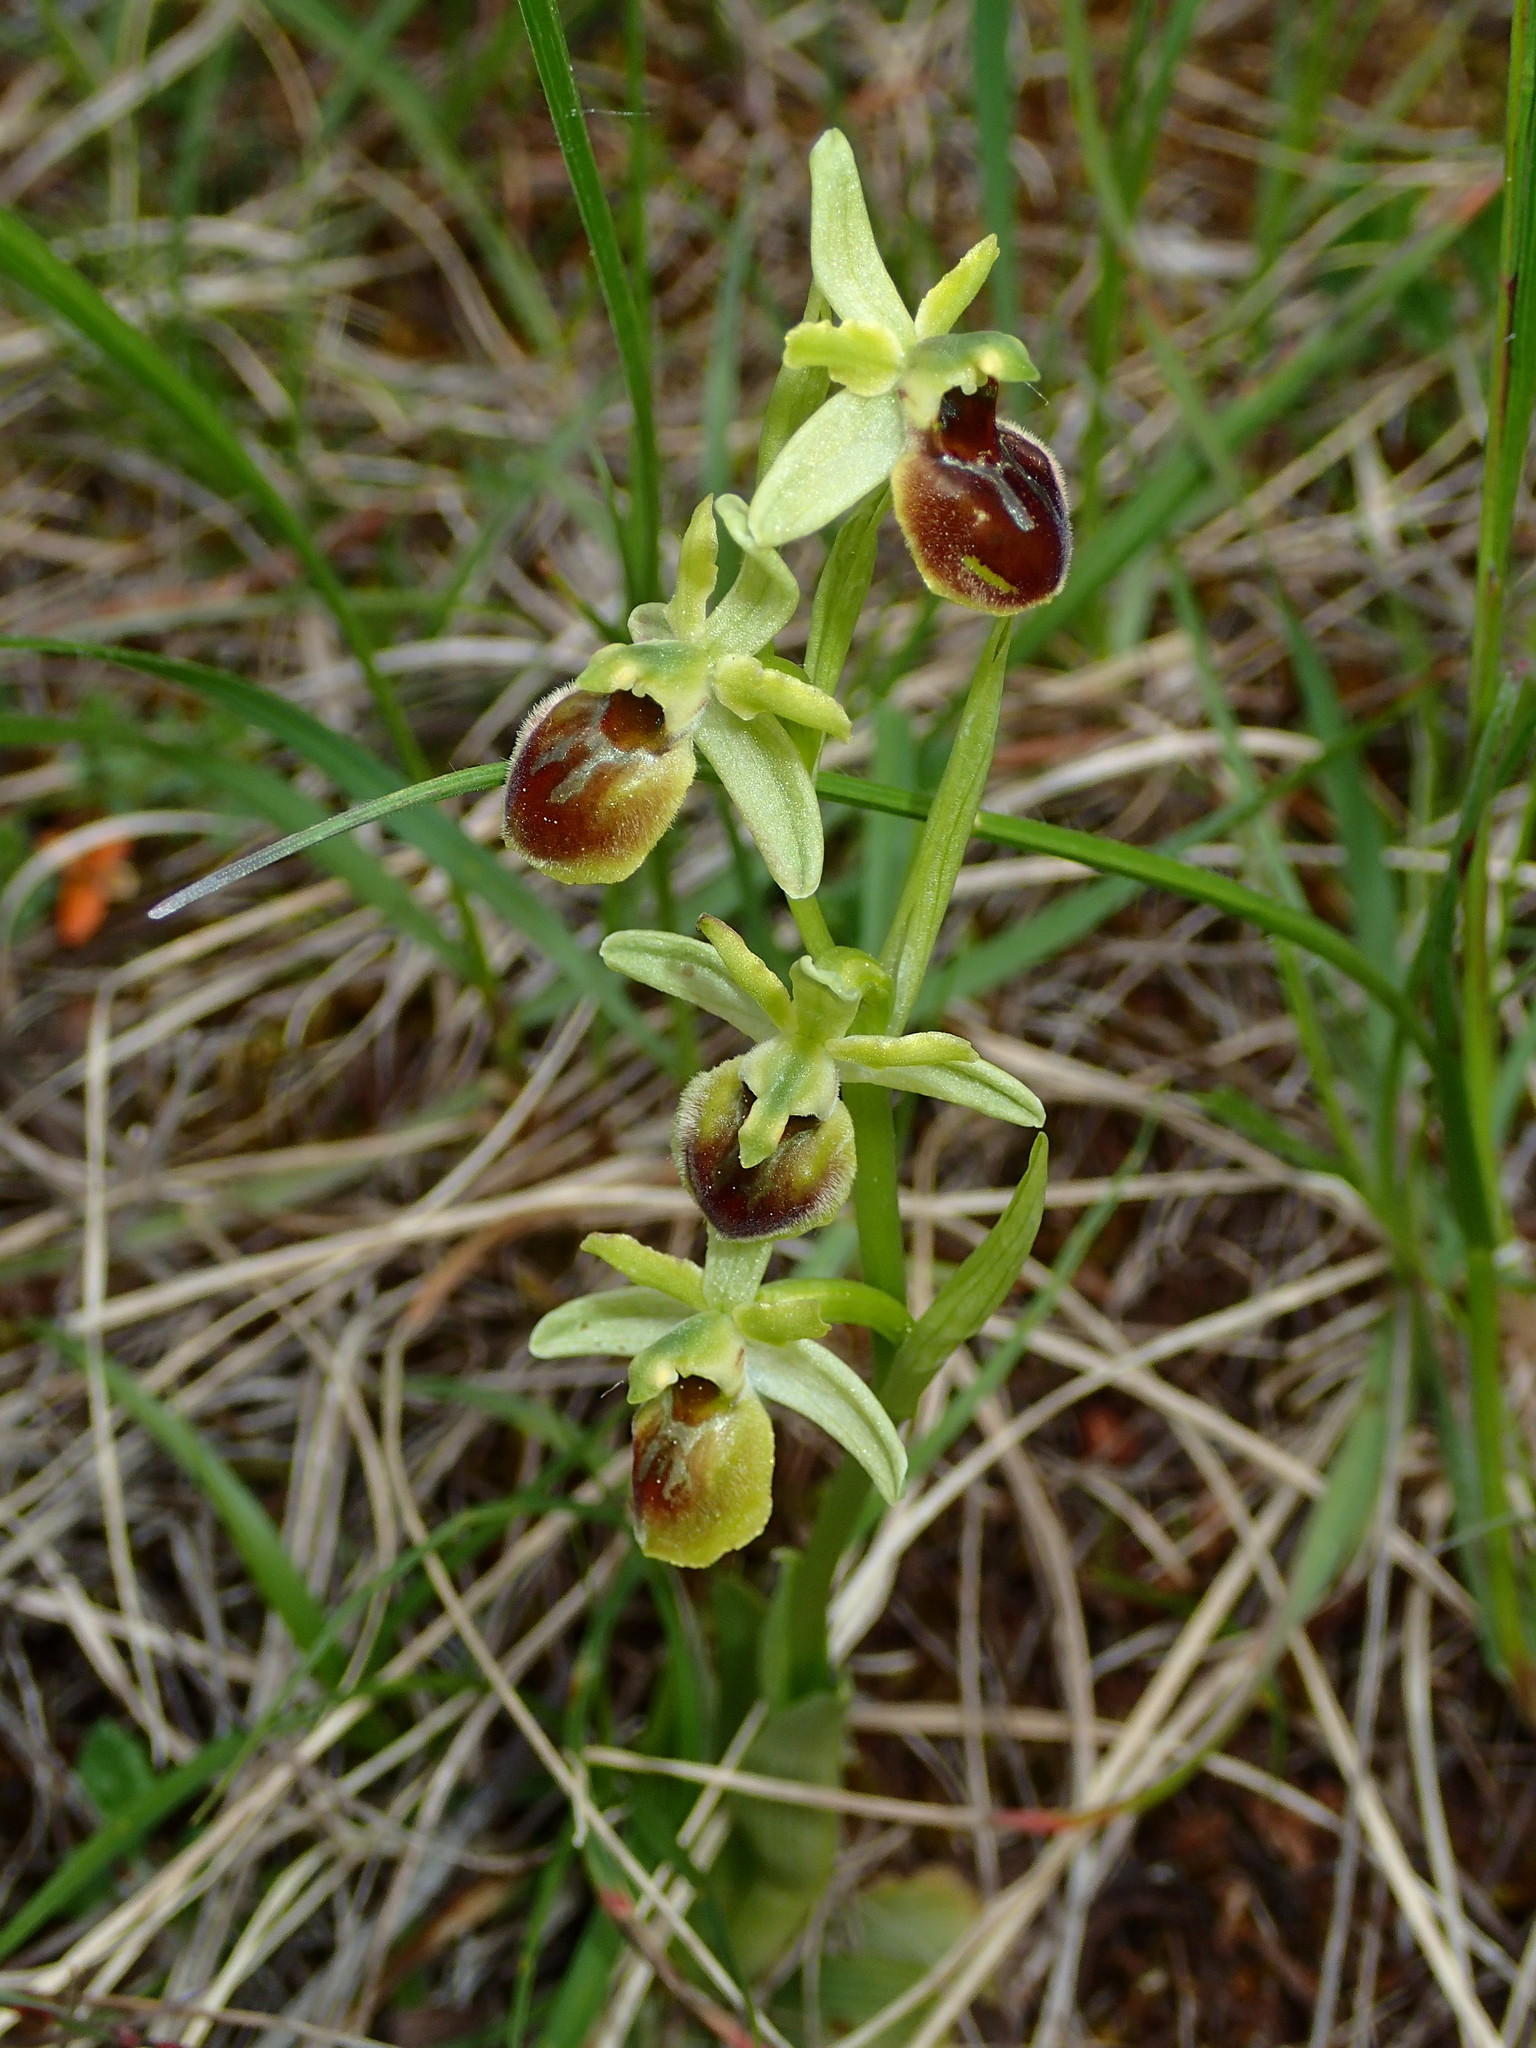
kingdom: Plantae
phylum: Tracheophyta
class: Liliopsida
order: Asparagales
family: Orchidaceae
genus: Ophrys
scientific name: Ophrys sphegodes
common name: Early spider-orchid
